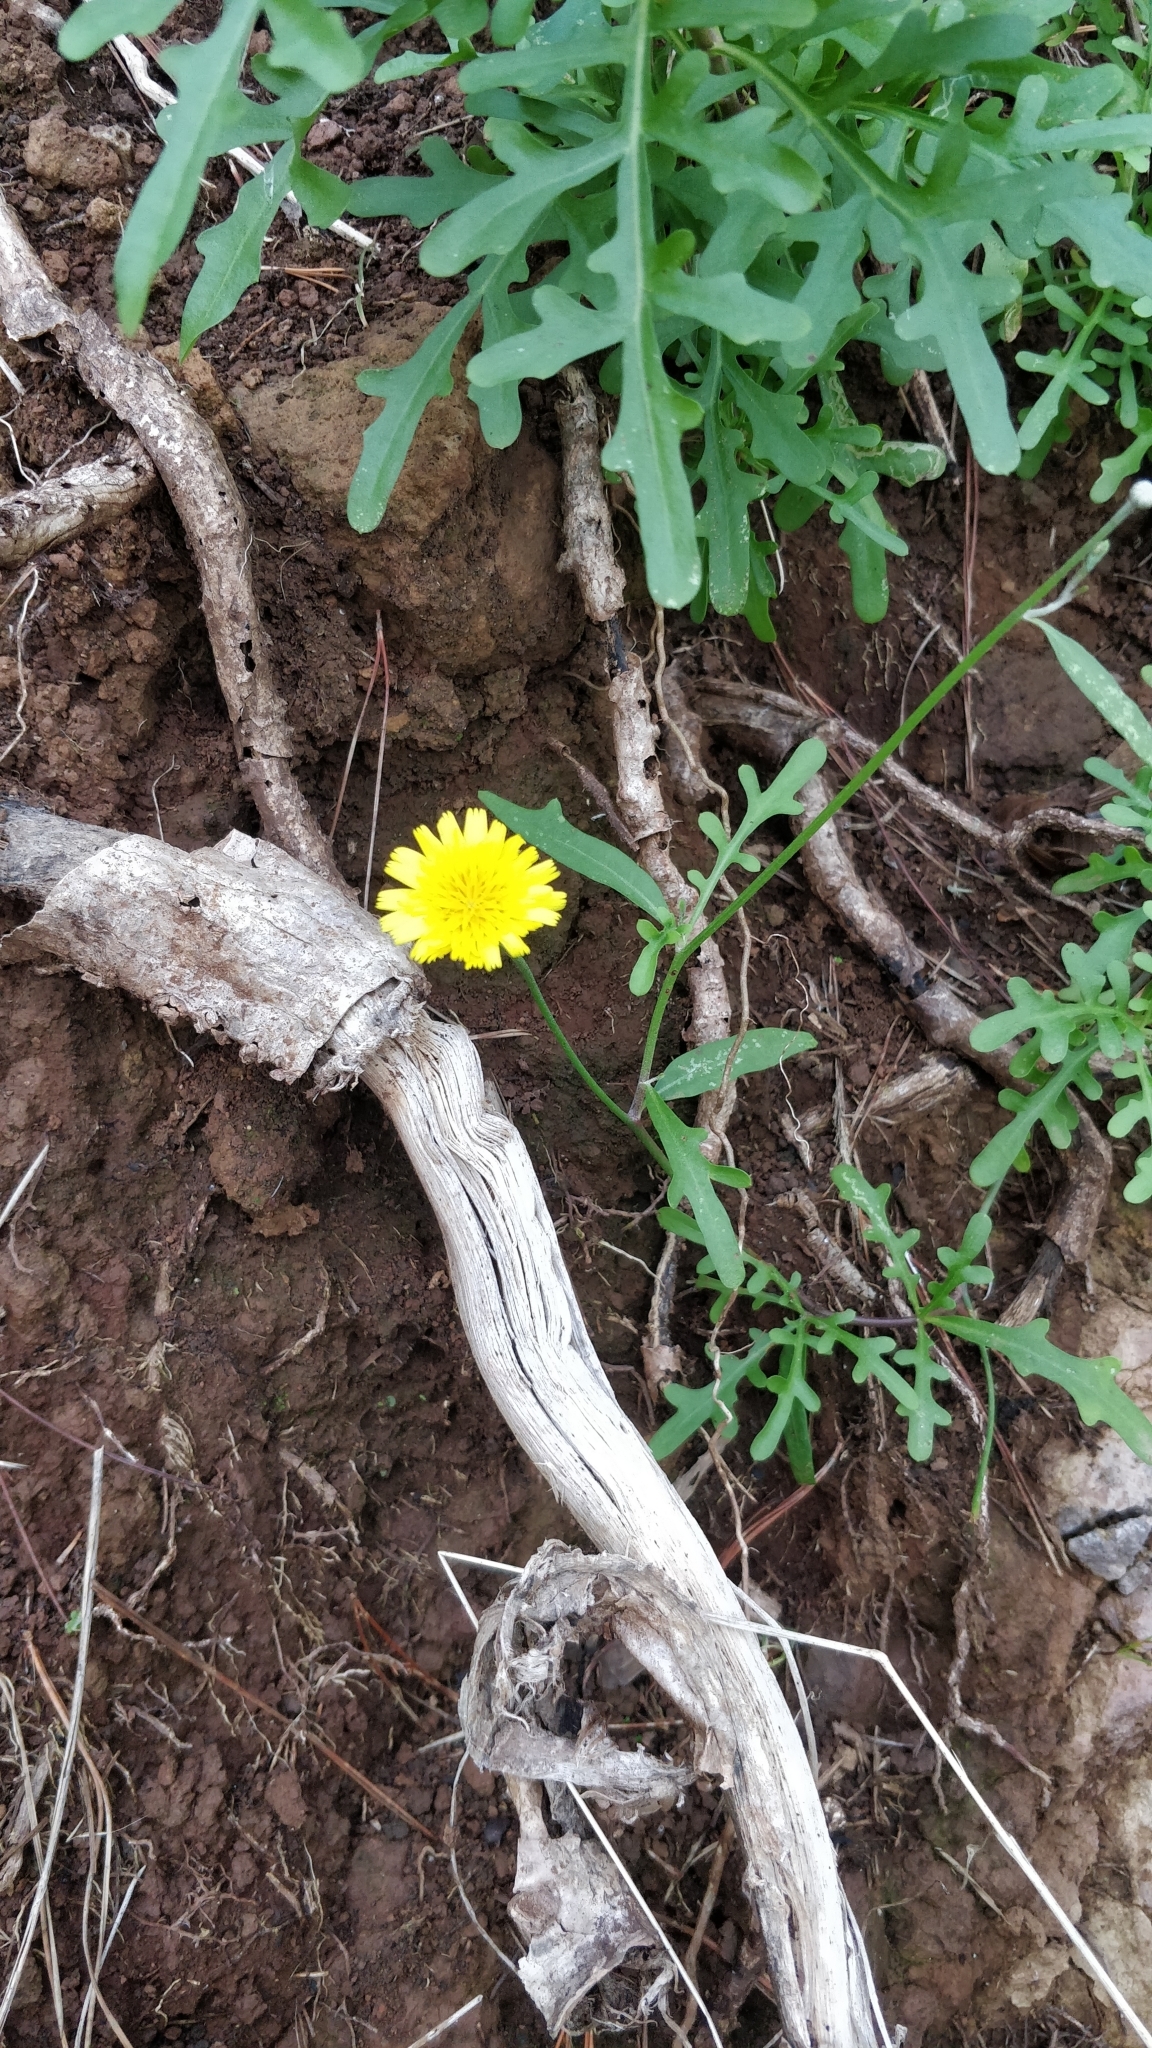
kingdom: Plantae
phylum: Tracheophyta
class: Magnoliopsida
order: Asterales
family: Asteraceae
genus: Tolpis
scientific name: Tolpis succulenta
